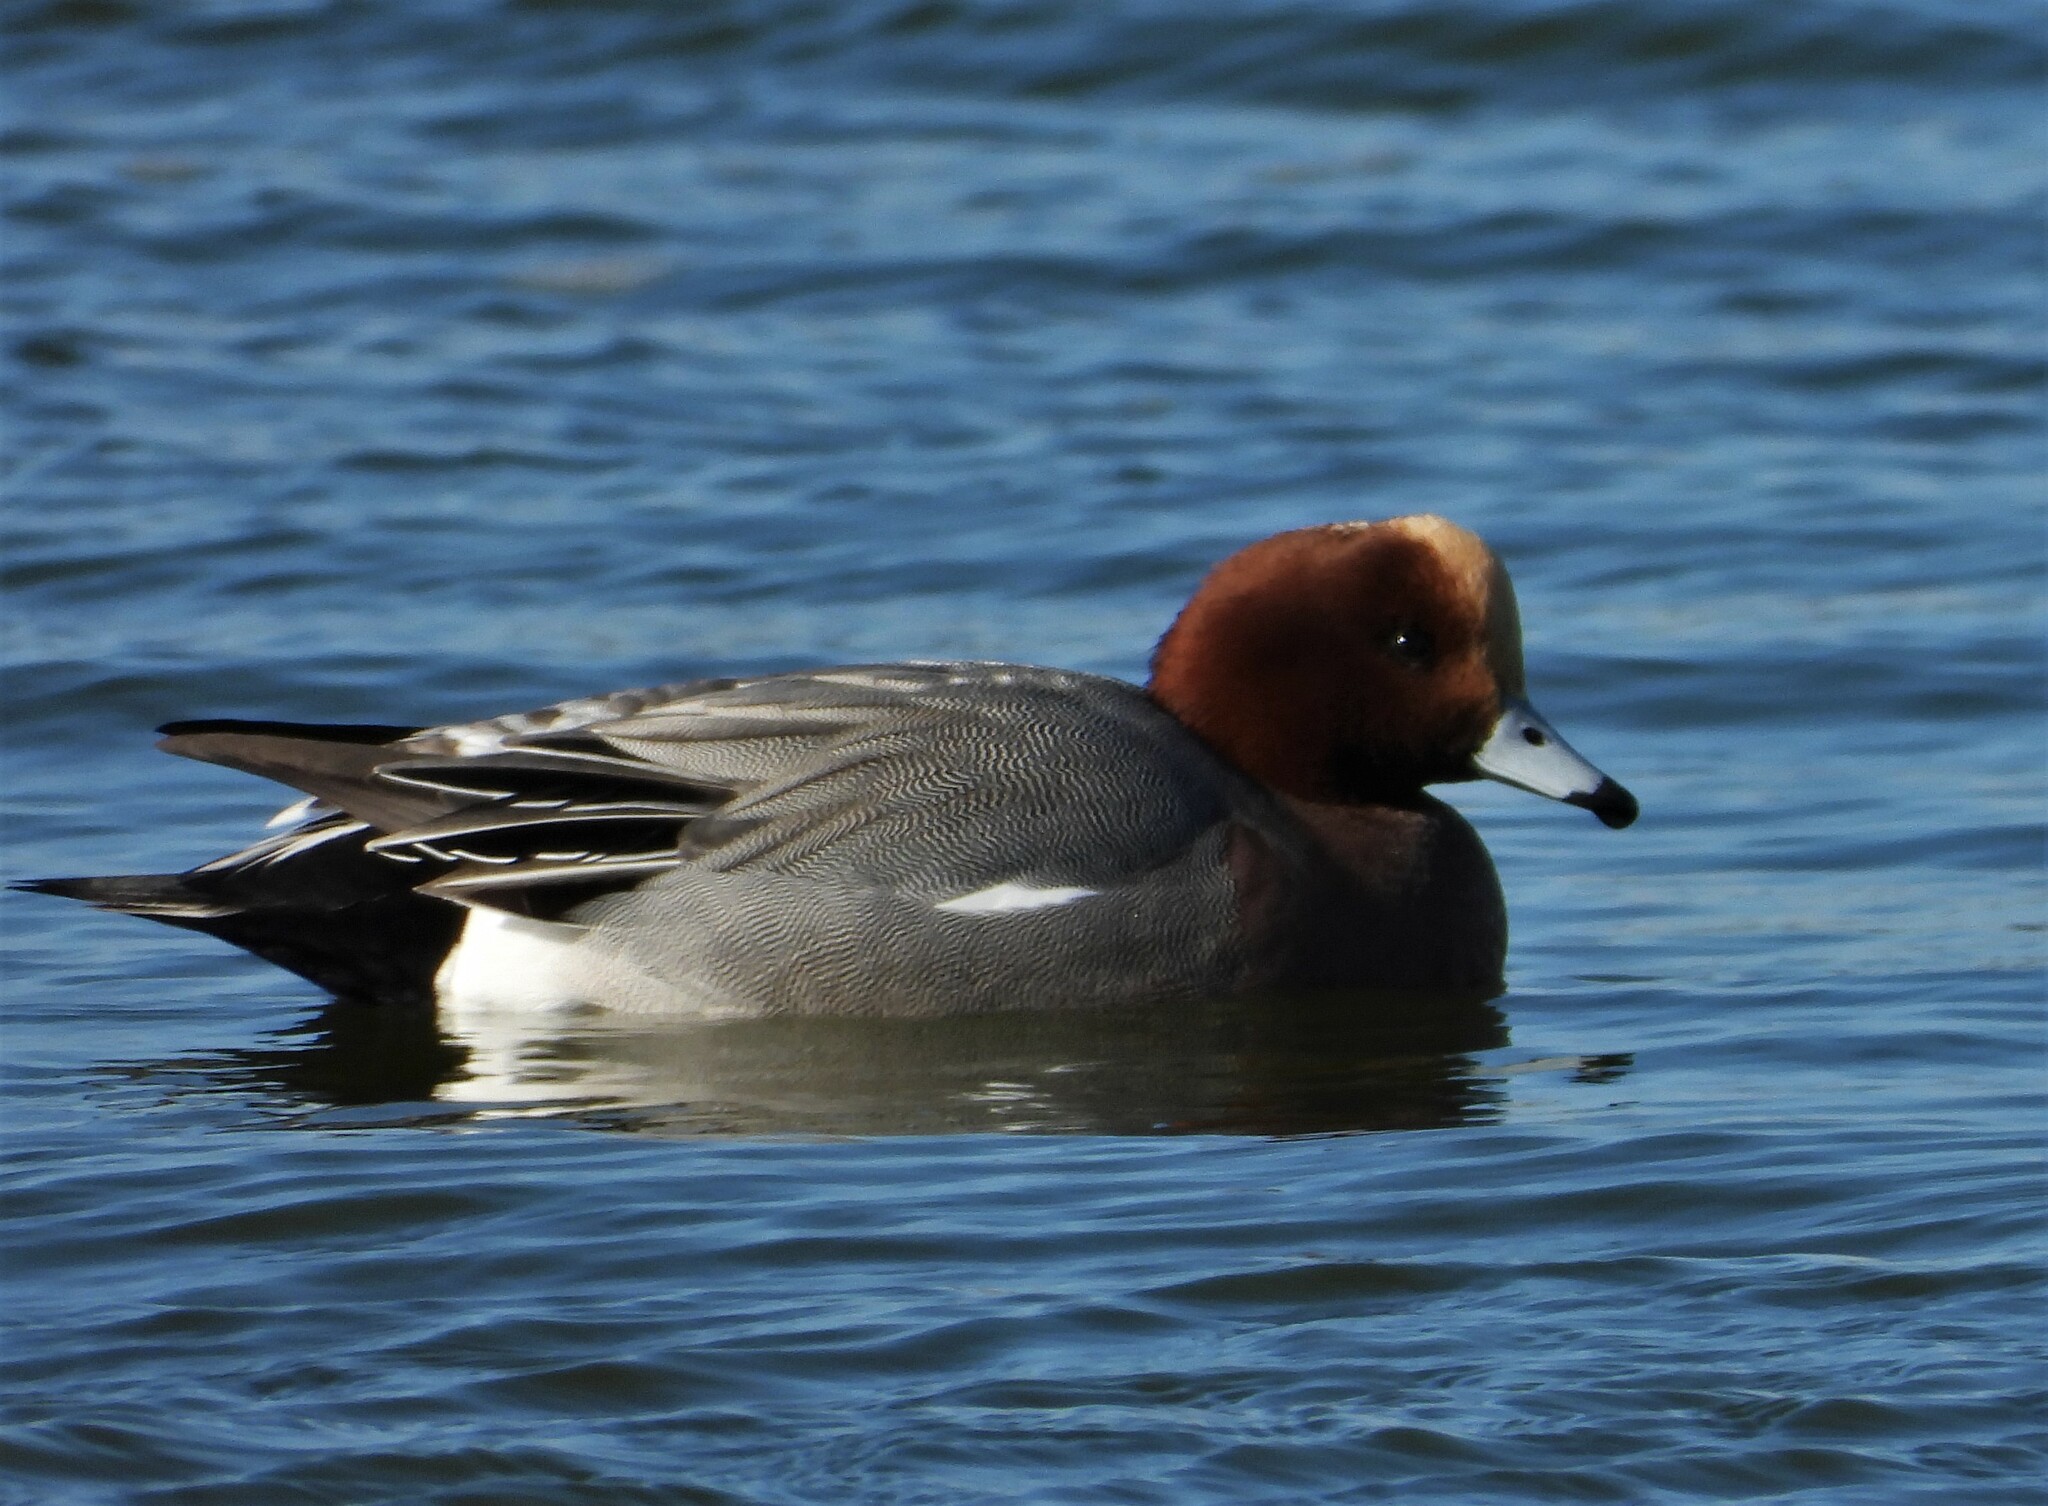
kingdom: Animalia
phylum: Chordata
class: Aves
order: Anseriformes
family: Anatidae
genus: Mareca
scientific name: Mareca penelope
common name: Eurasian wigeon
